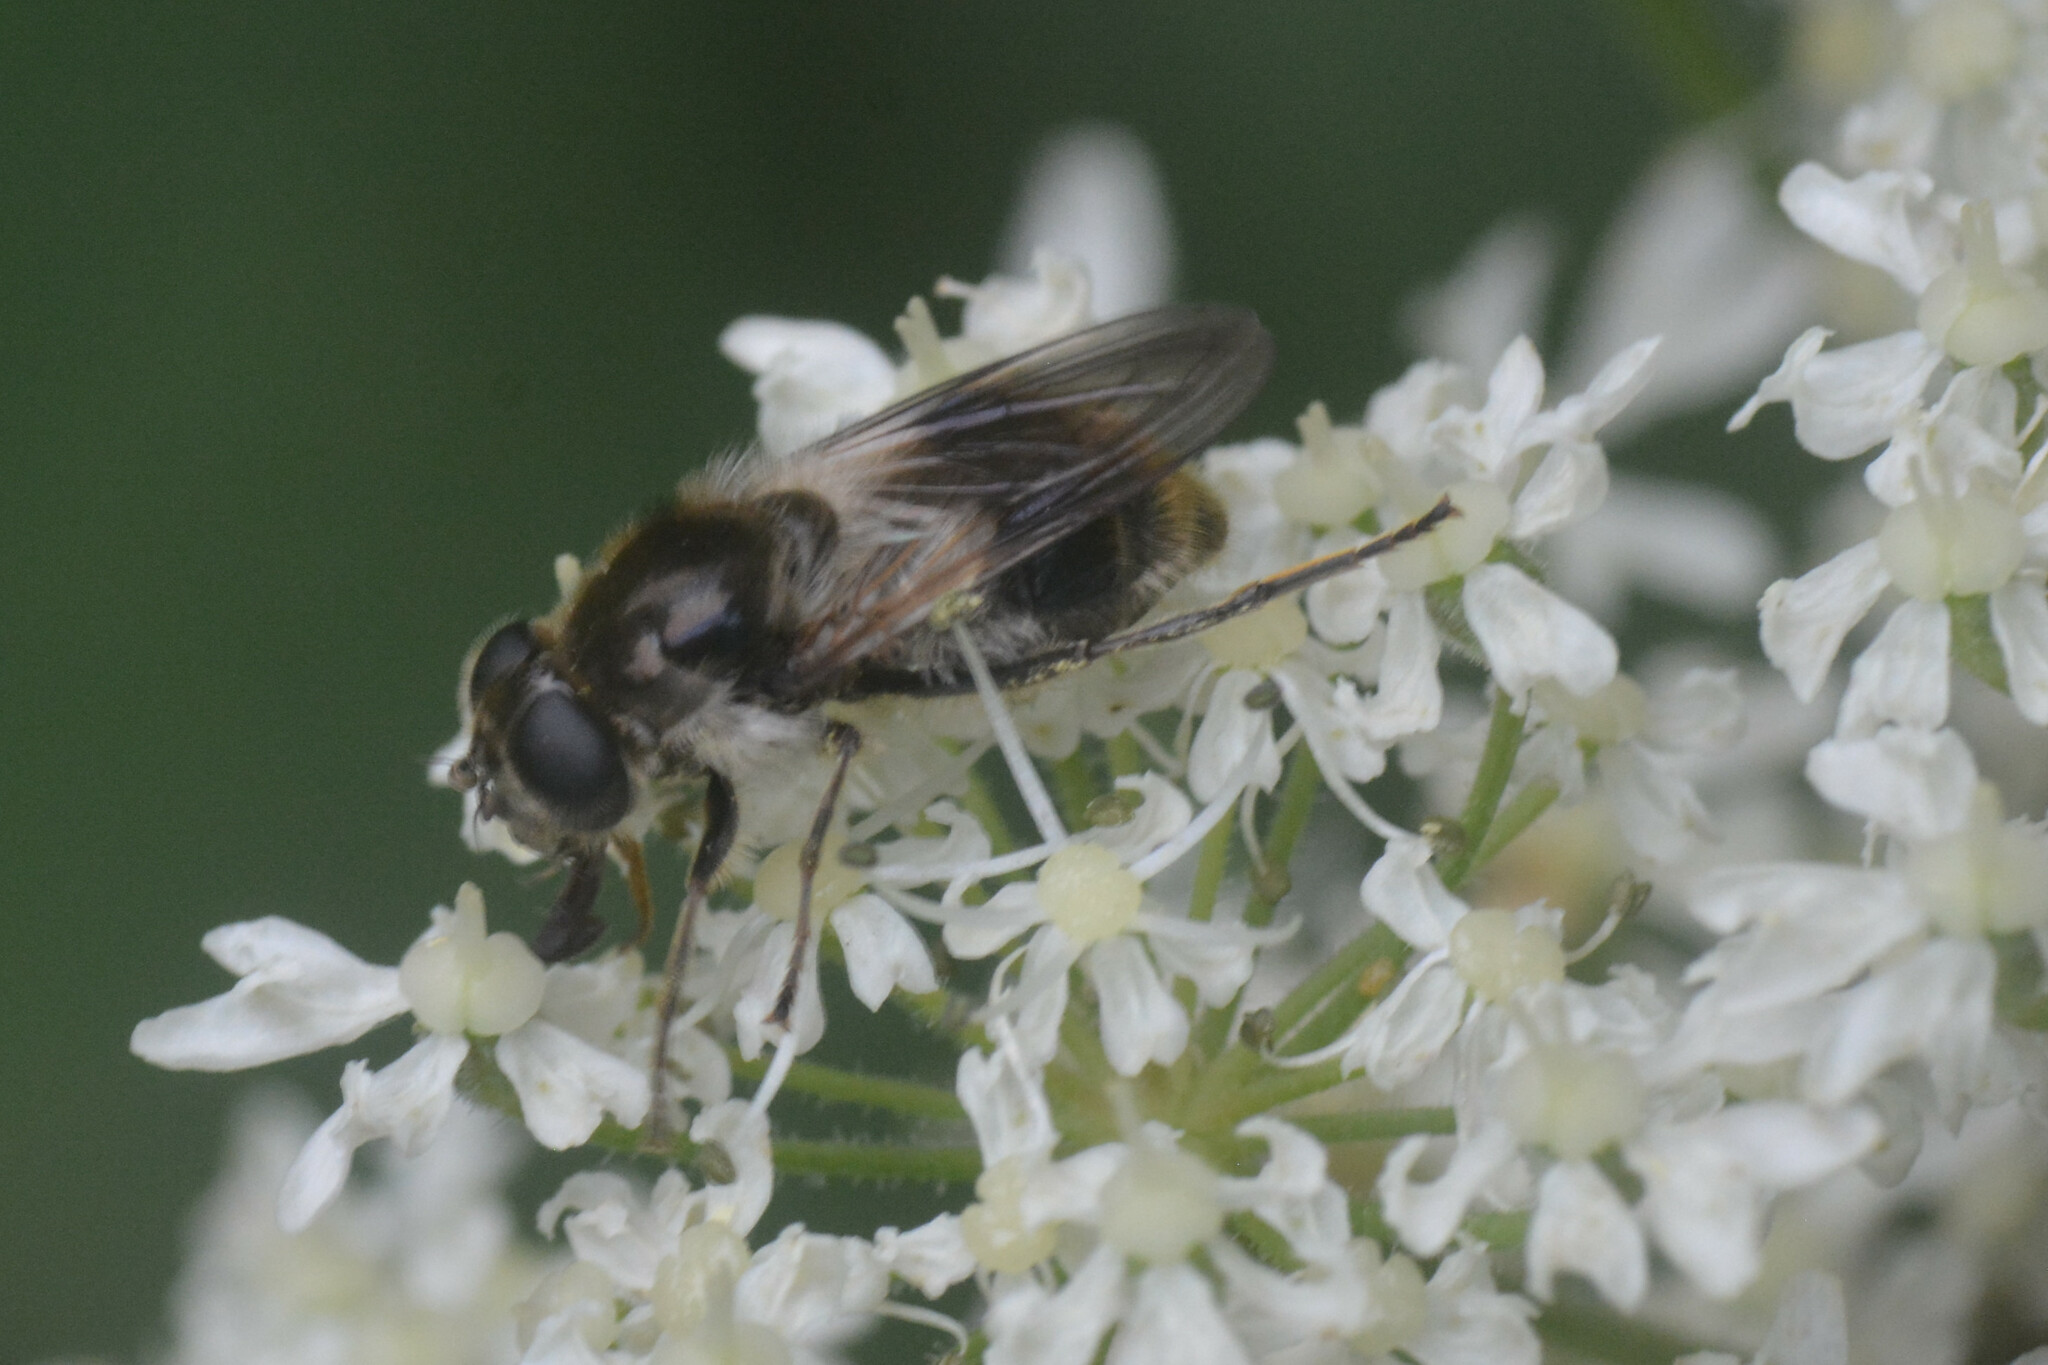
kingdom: Animalia
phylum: Arthropoda
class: Insecta
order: Diptera
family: Syrphidae
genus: Cheilosia
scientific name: Cheilosia illustrata
